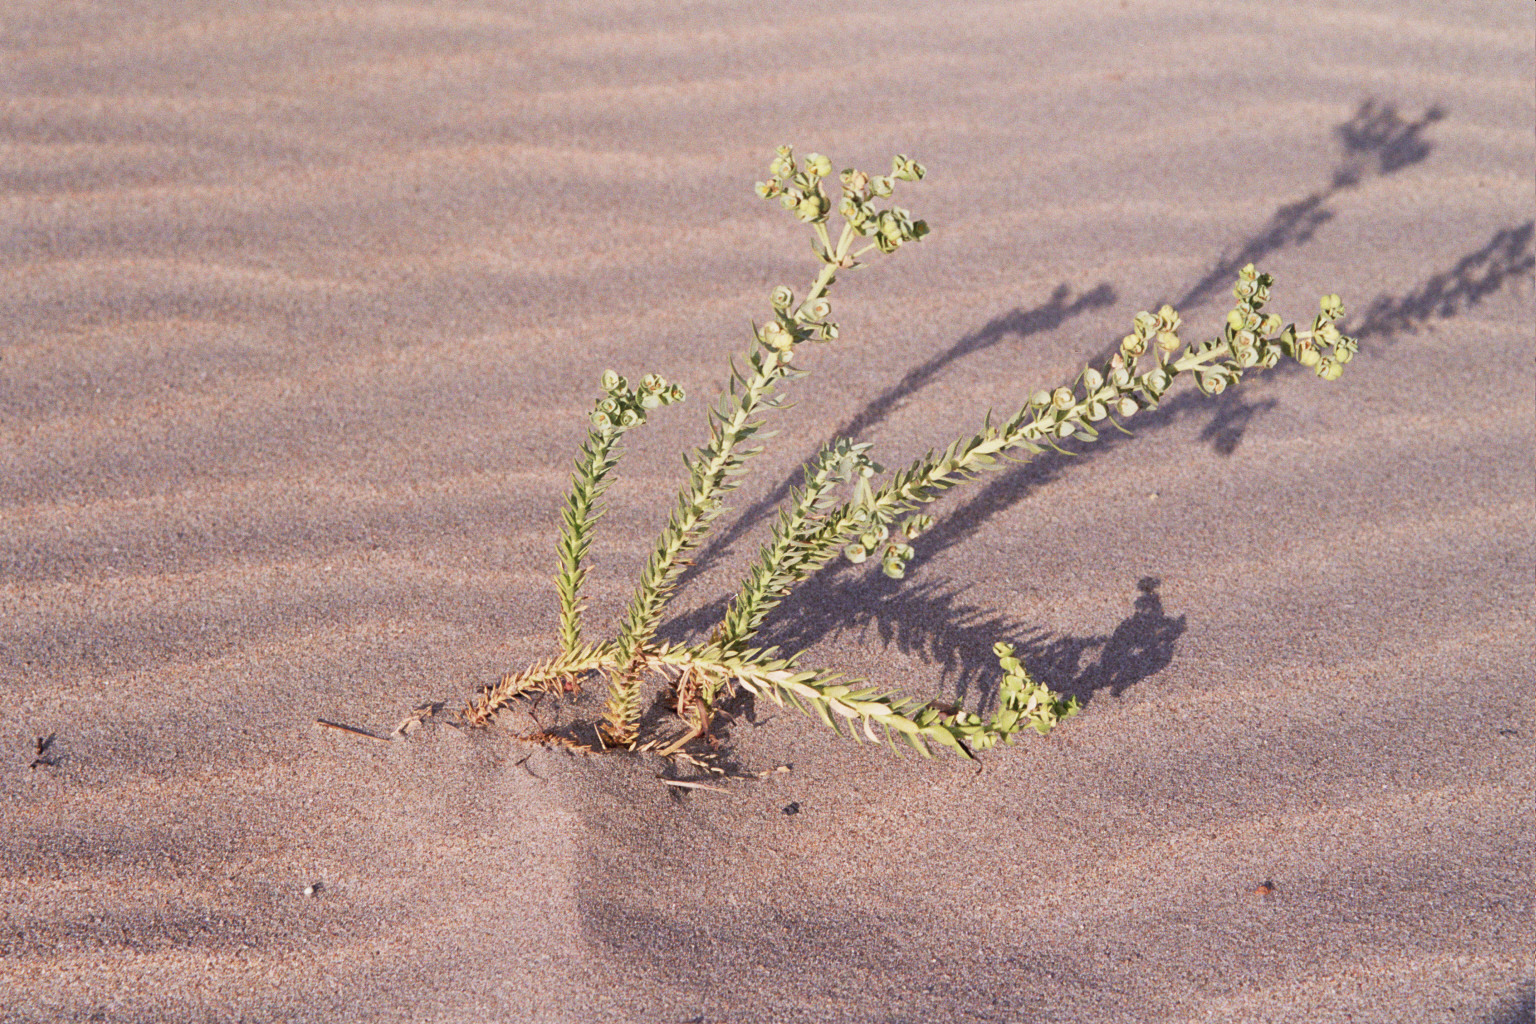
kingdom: Plantae
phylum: Tracheophyta
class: Magnoliopsida
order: Malpighiales
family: Euphorbiaceae
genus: Euphorbia
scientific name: Euphorbia paralias
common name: Sea spurge
